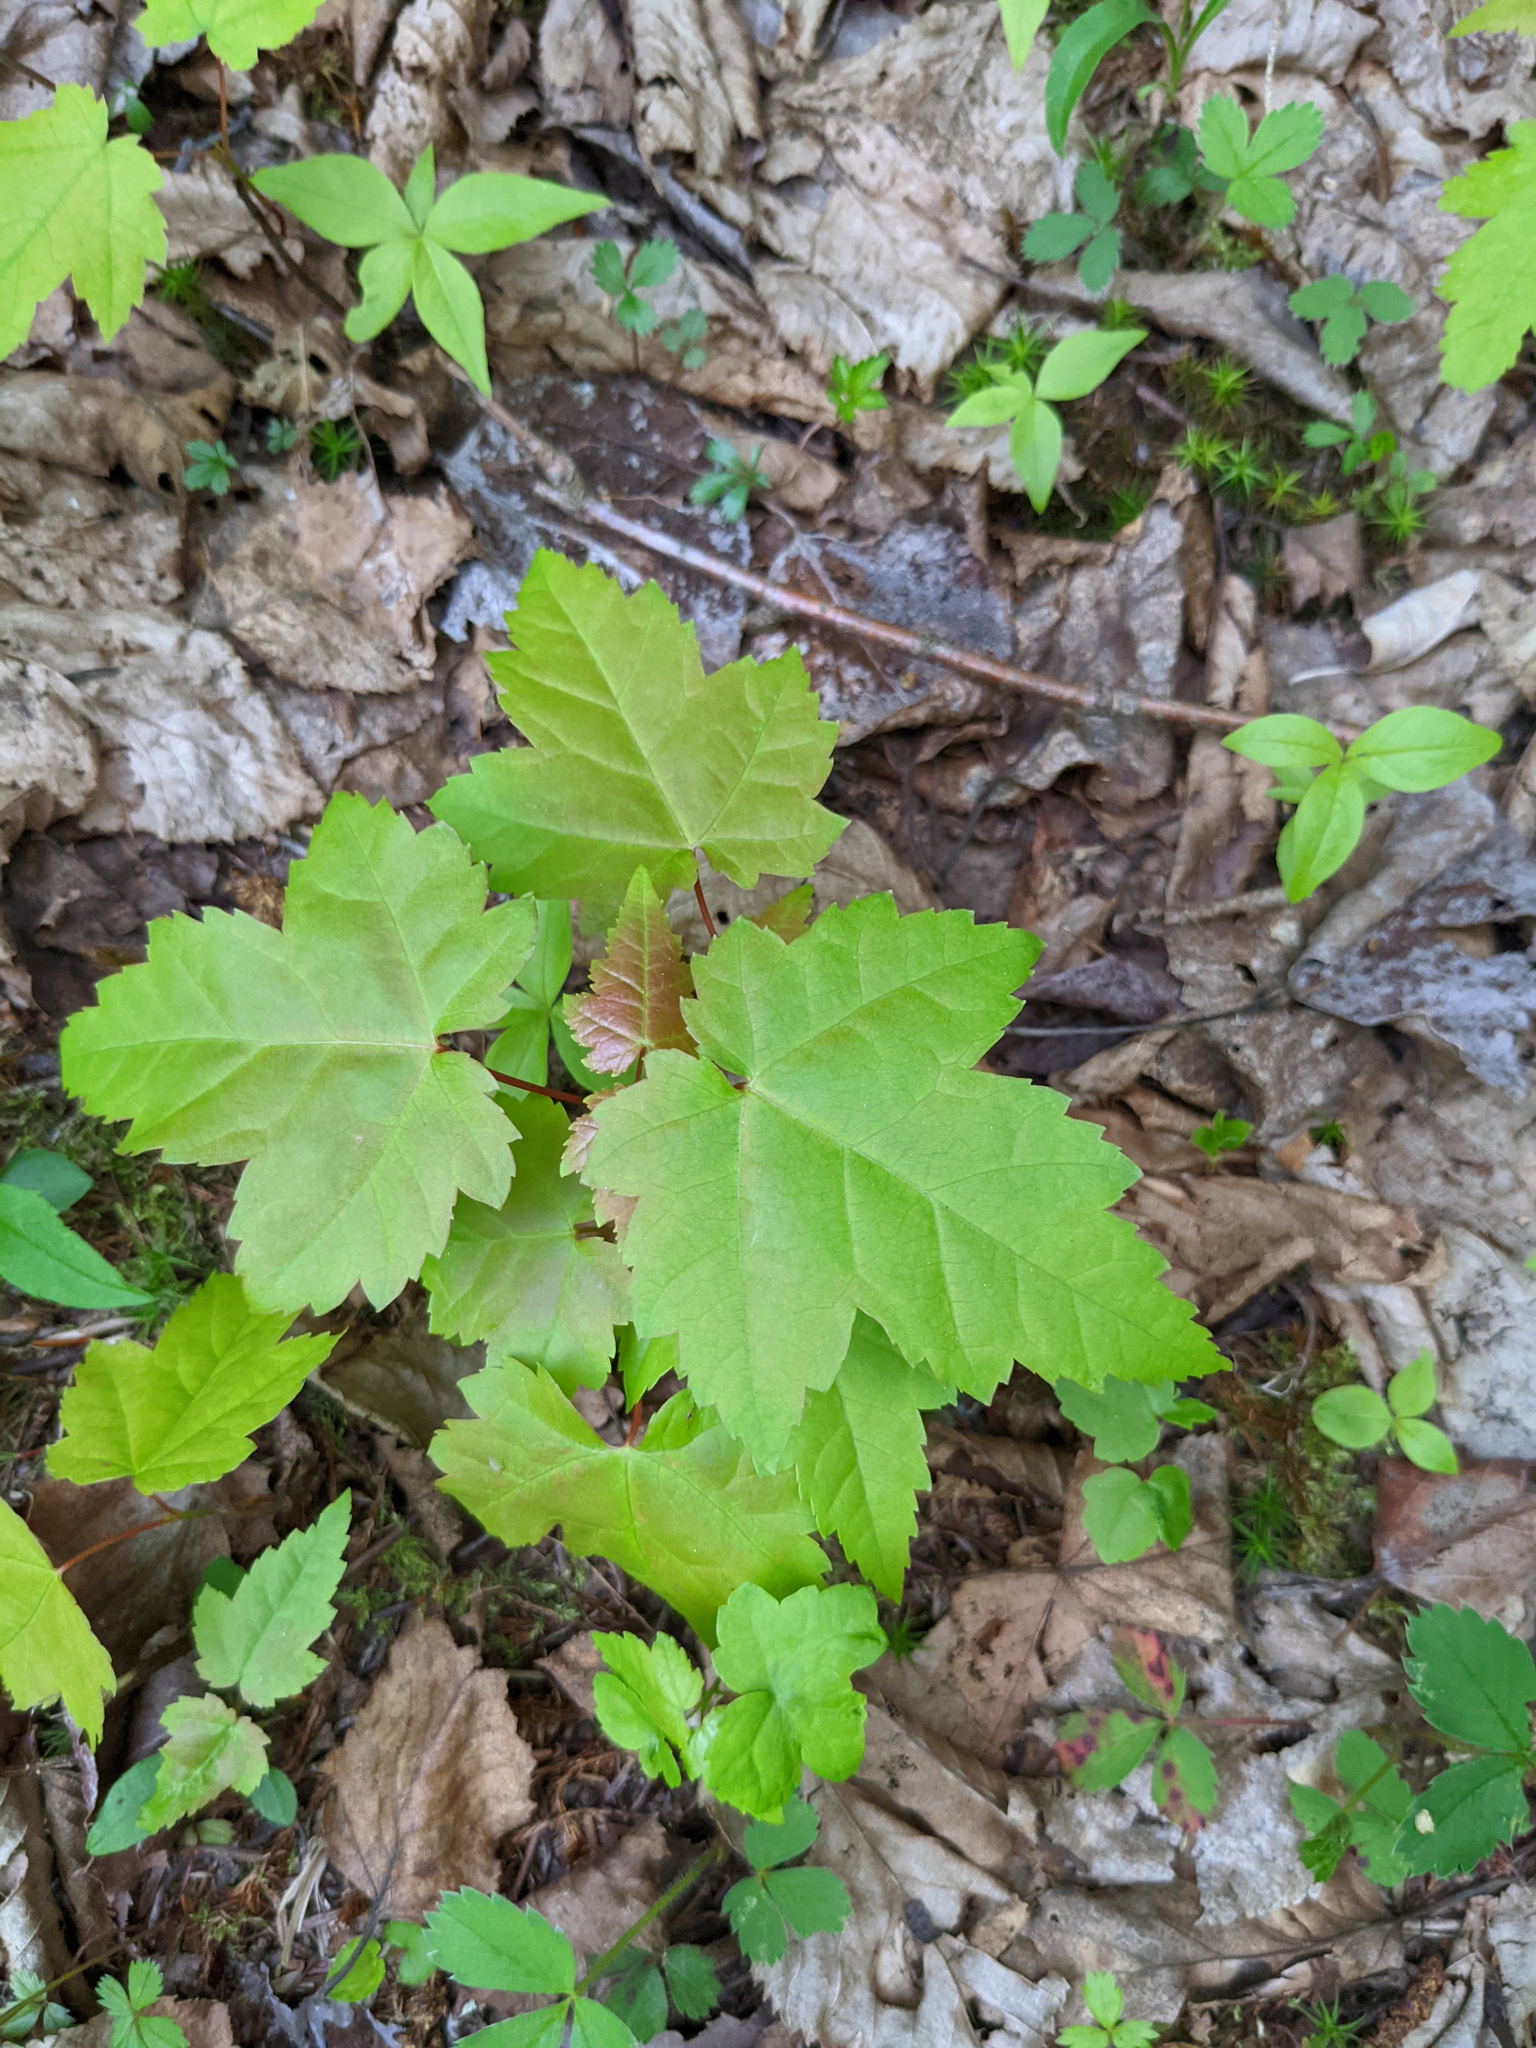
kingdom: Plantae
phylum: Tracheophyta
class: Magnoliopsida
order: Sapindales
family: Sapindaceae
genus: Acer
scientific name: Acer rubrum
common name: Red maple
